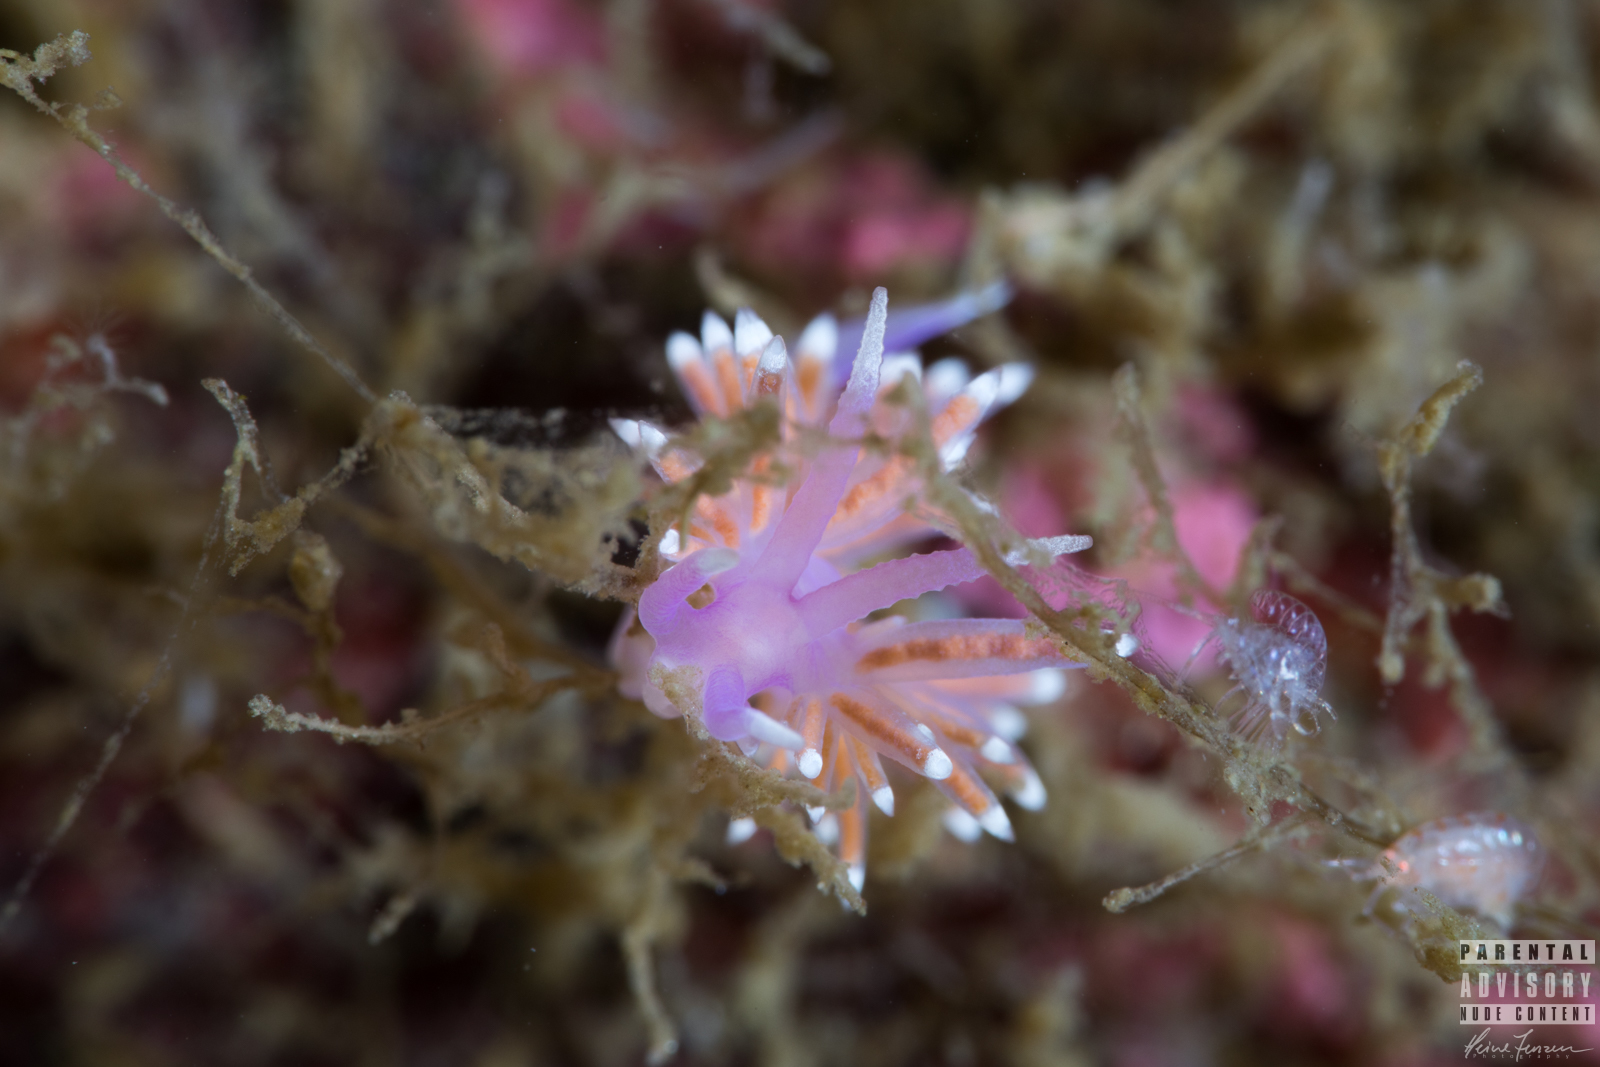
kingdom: Animalia
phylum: Mollusca
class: Gastropoda
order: Nudibranchia
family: Flabellinidae
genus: Edmundsella
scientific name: Edmundsella pedata
